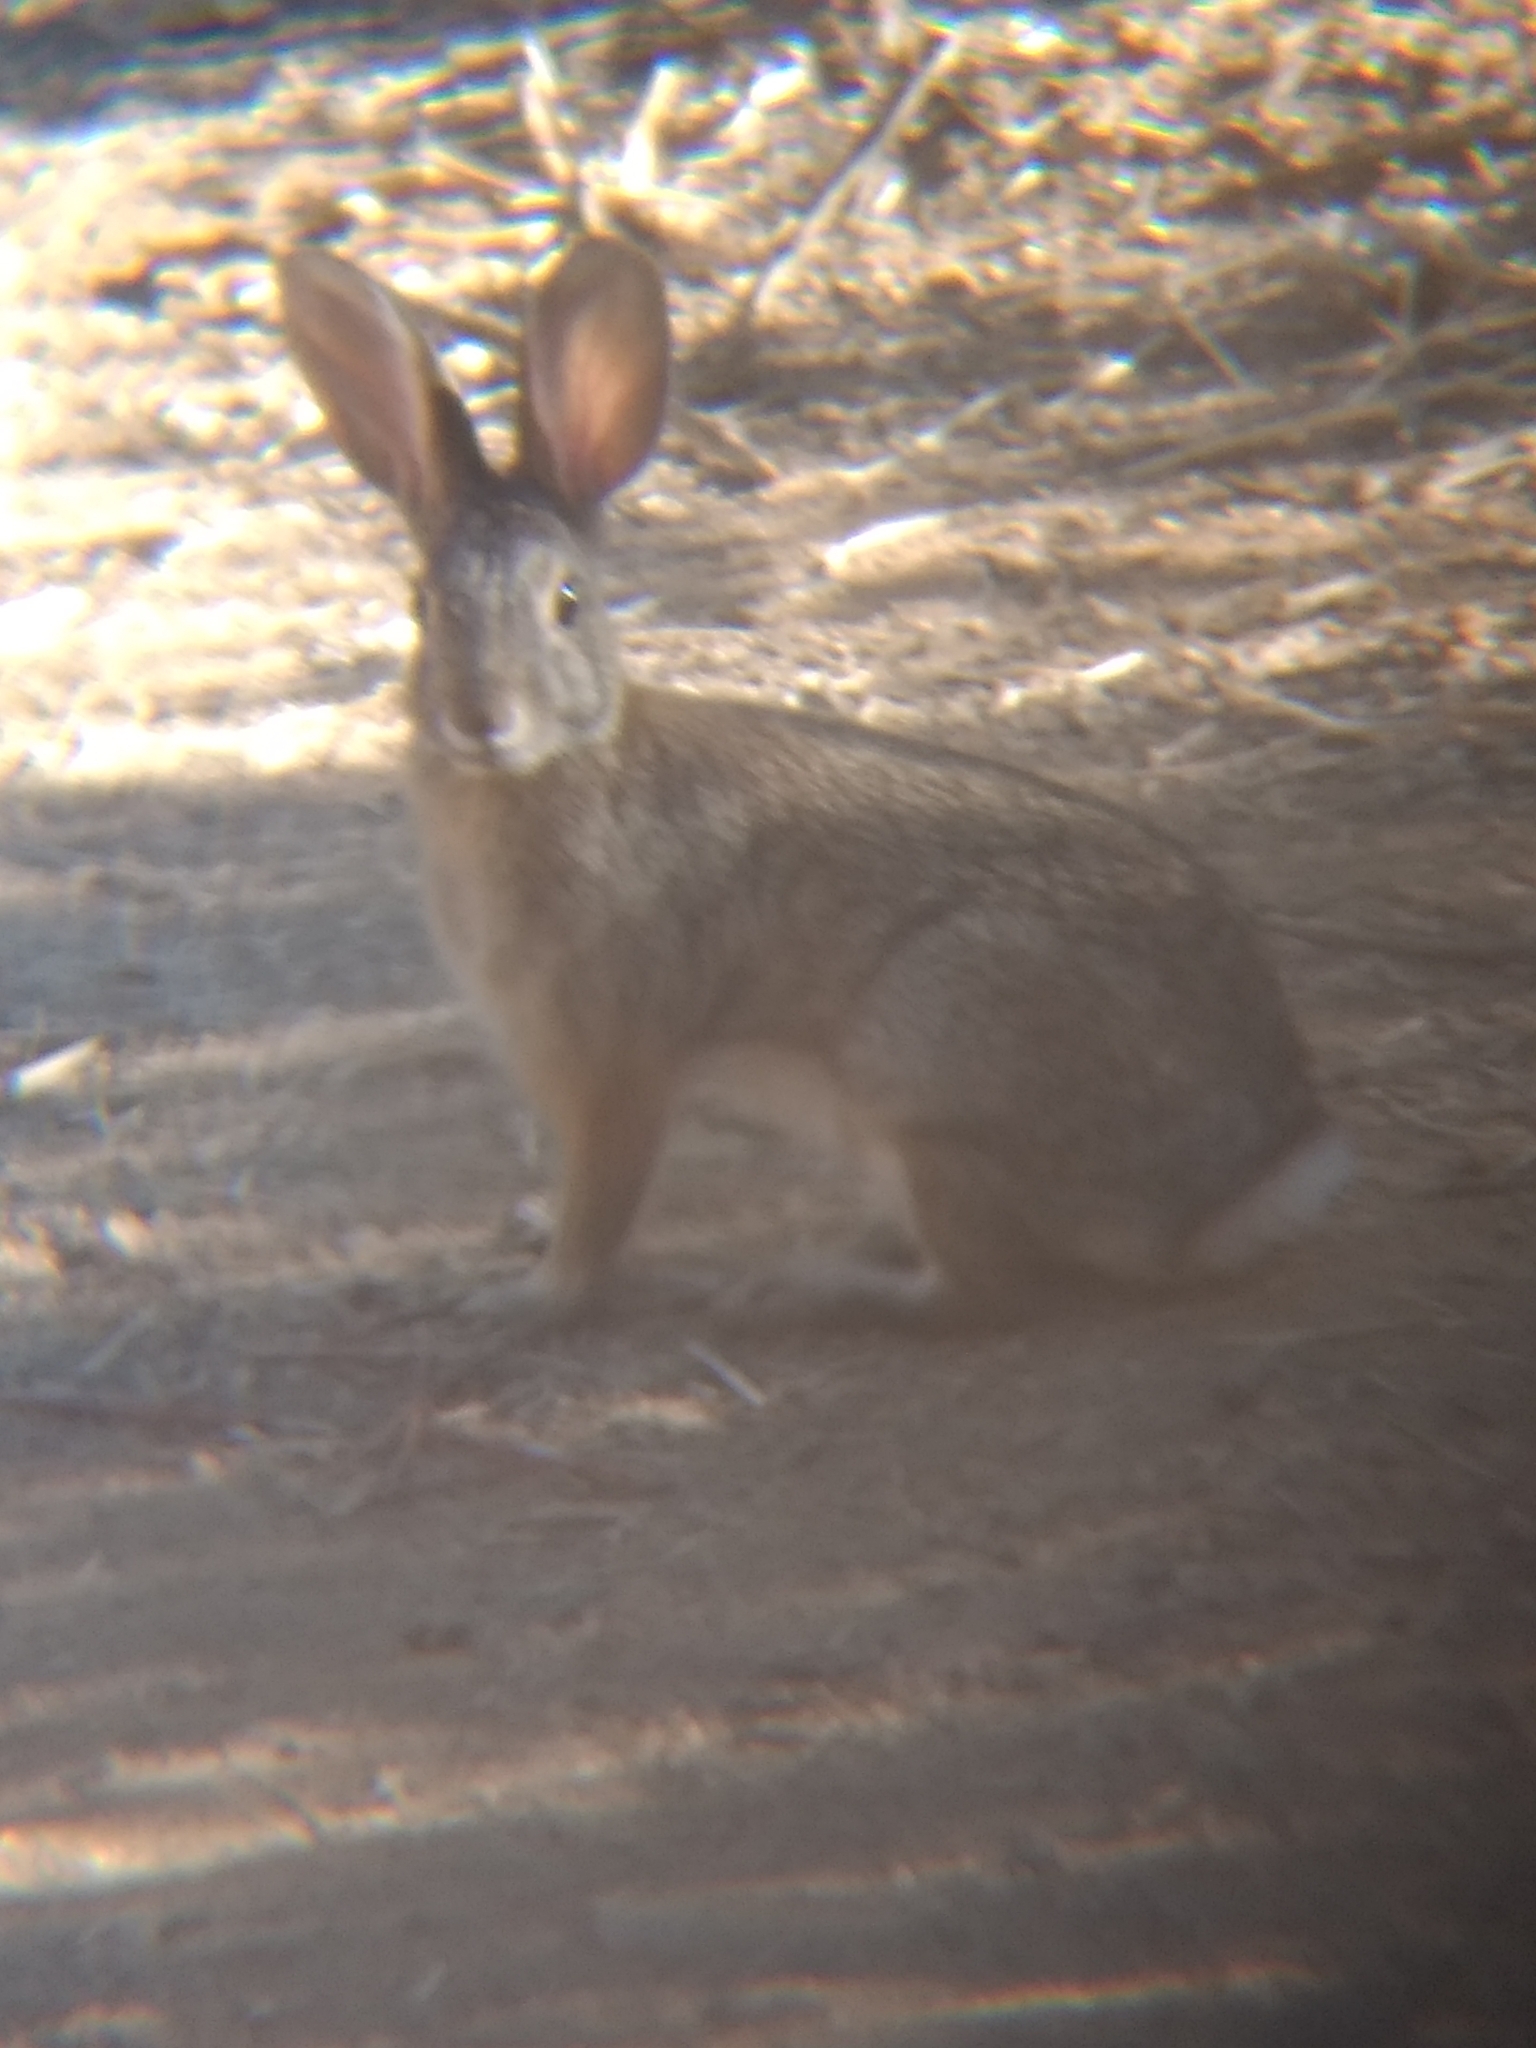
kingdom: Animalia
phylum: Chordata
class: Mammalia
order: Lagomorpha
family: Leporidae
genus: Sylvilagus
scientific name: Sylvilagus audubonii
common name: Desert cottontail
